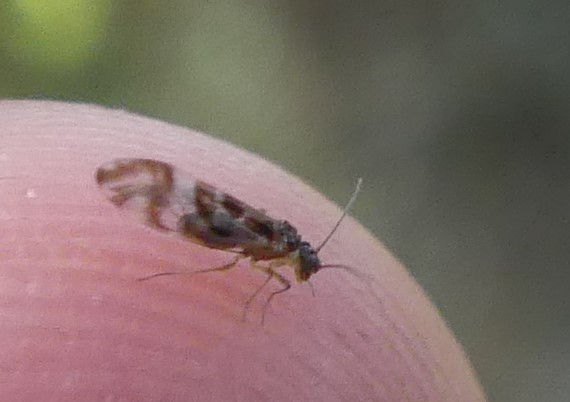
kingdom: Animalia
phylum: Arthropoda
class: Insecta
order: Psocodea
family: Stenopsocidae
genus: Graphopsocus
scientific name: Graphopsocus cruciatus
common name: Lizard bark louse
